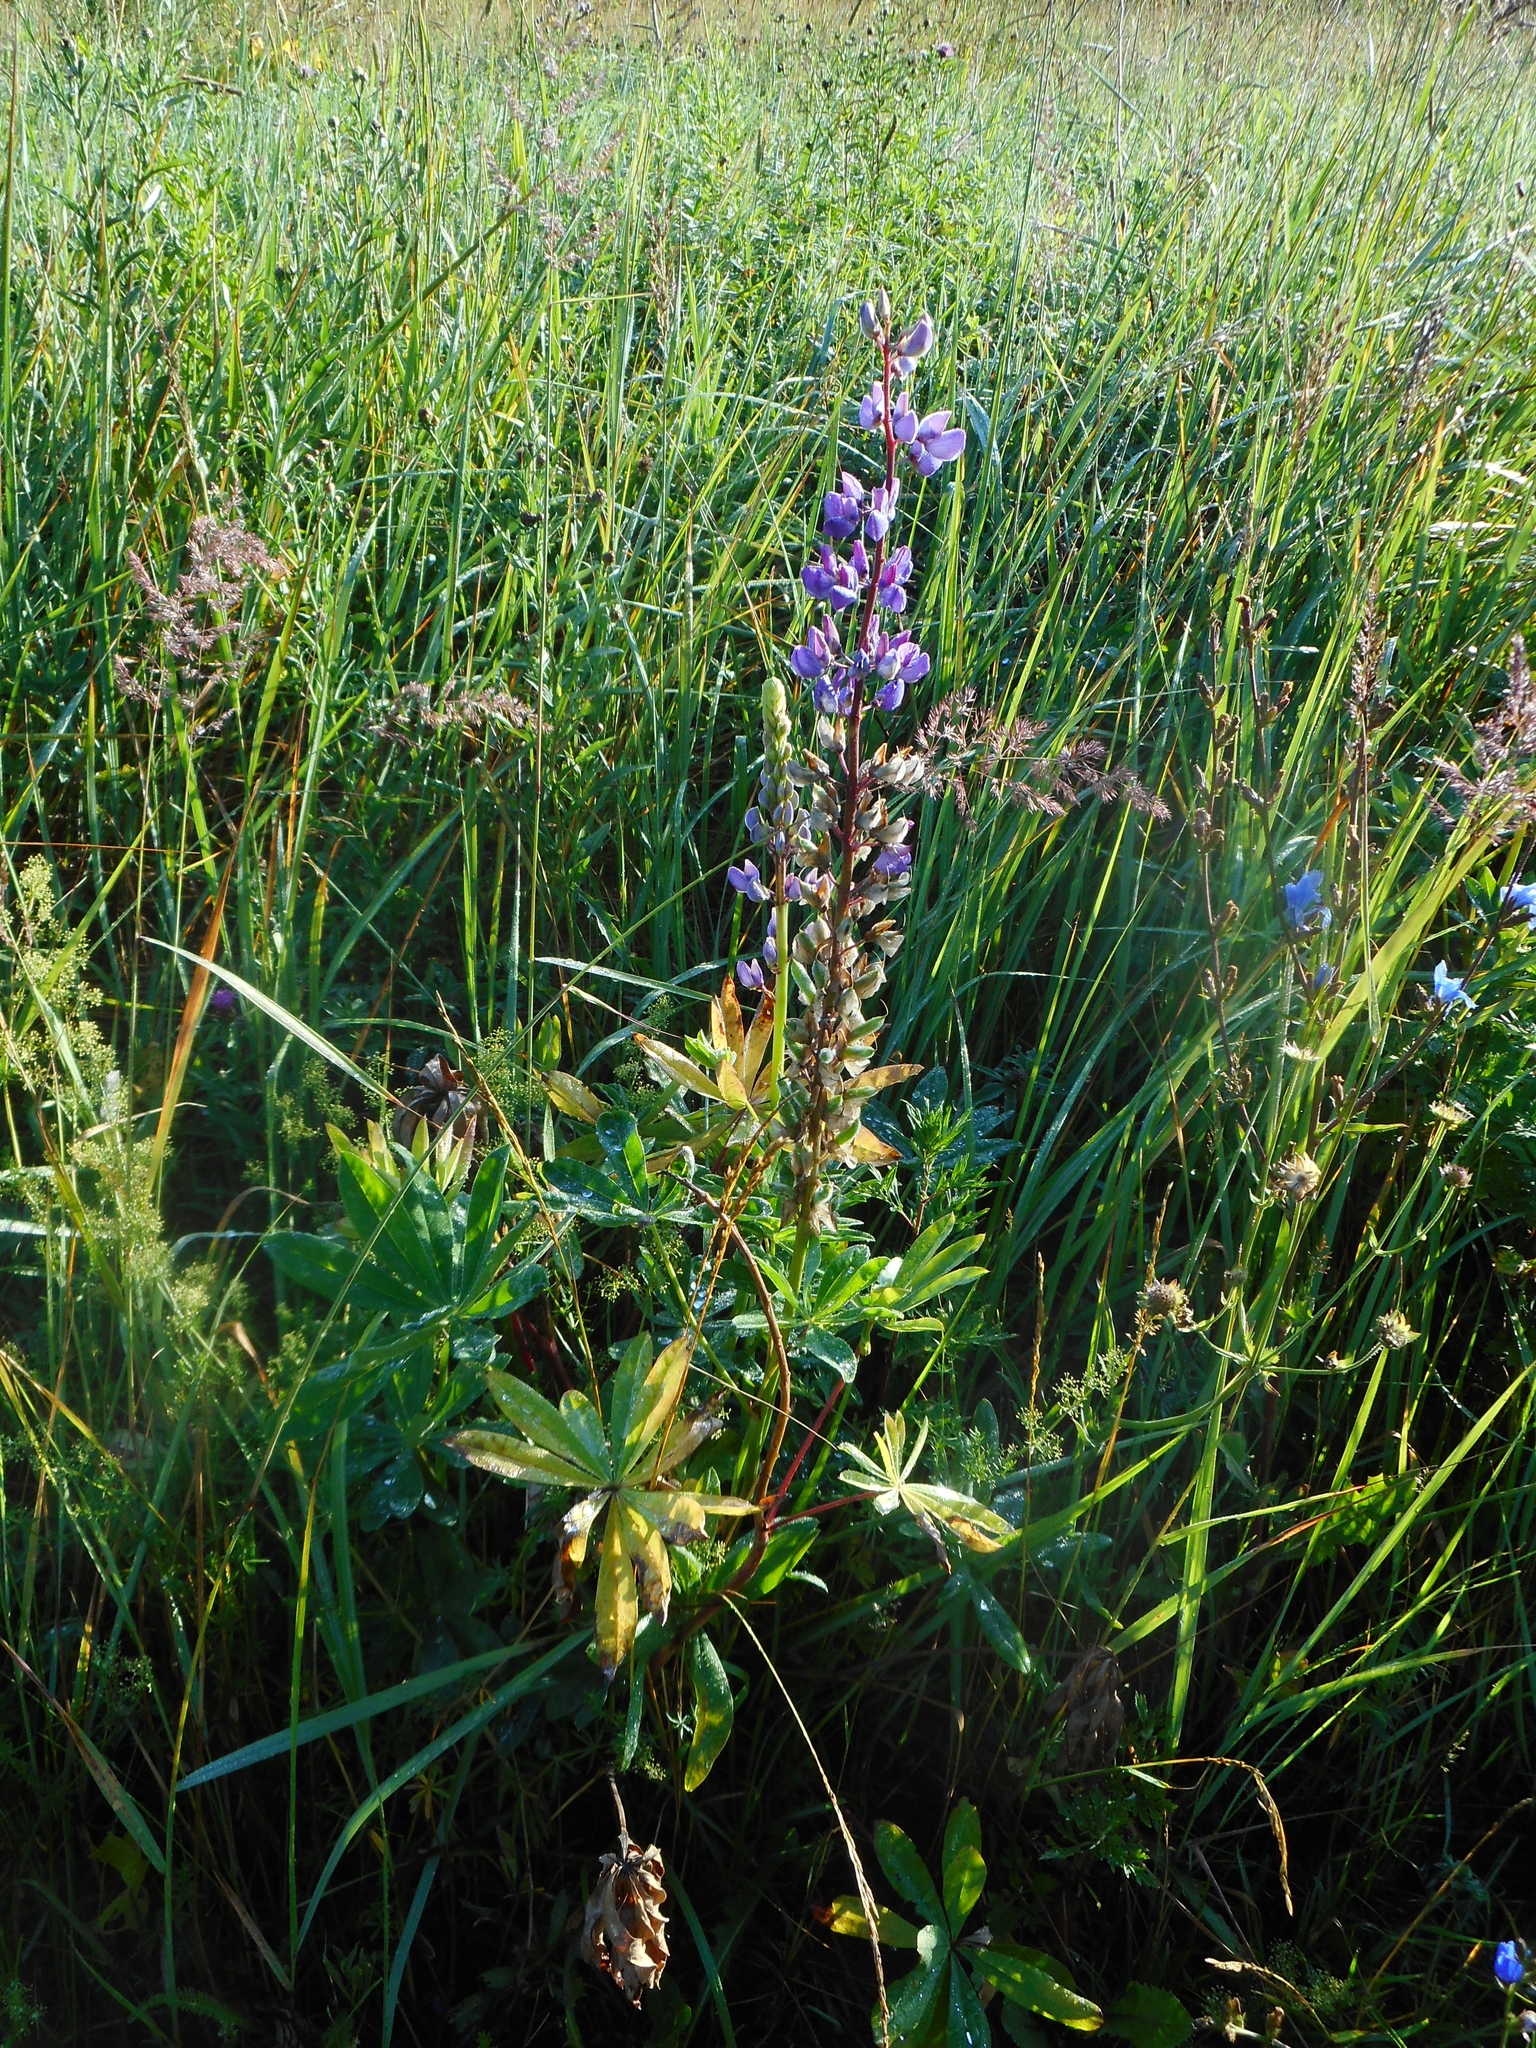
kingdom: Plantae
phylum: Tracheophyta
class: Magnoliopsida
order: Fabales
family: Fabaceae
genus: Lupinus
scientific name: Lupinus polyphyllus
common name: Garden lupin
